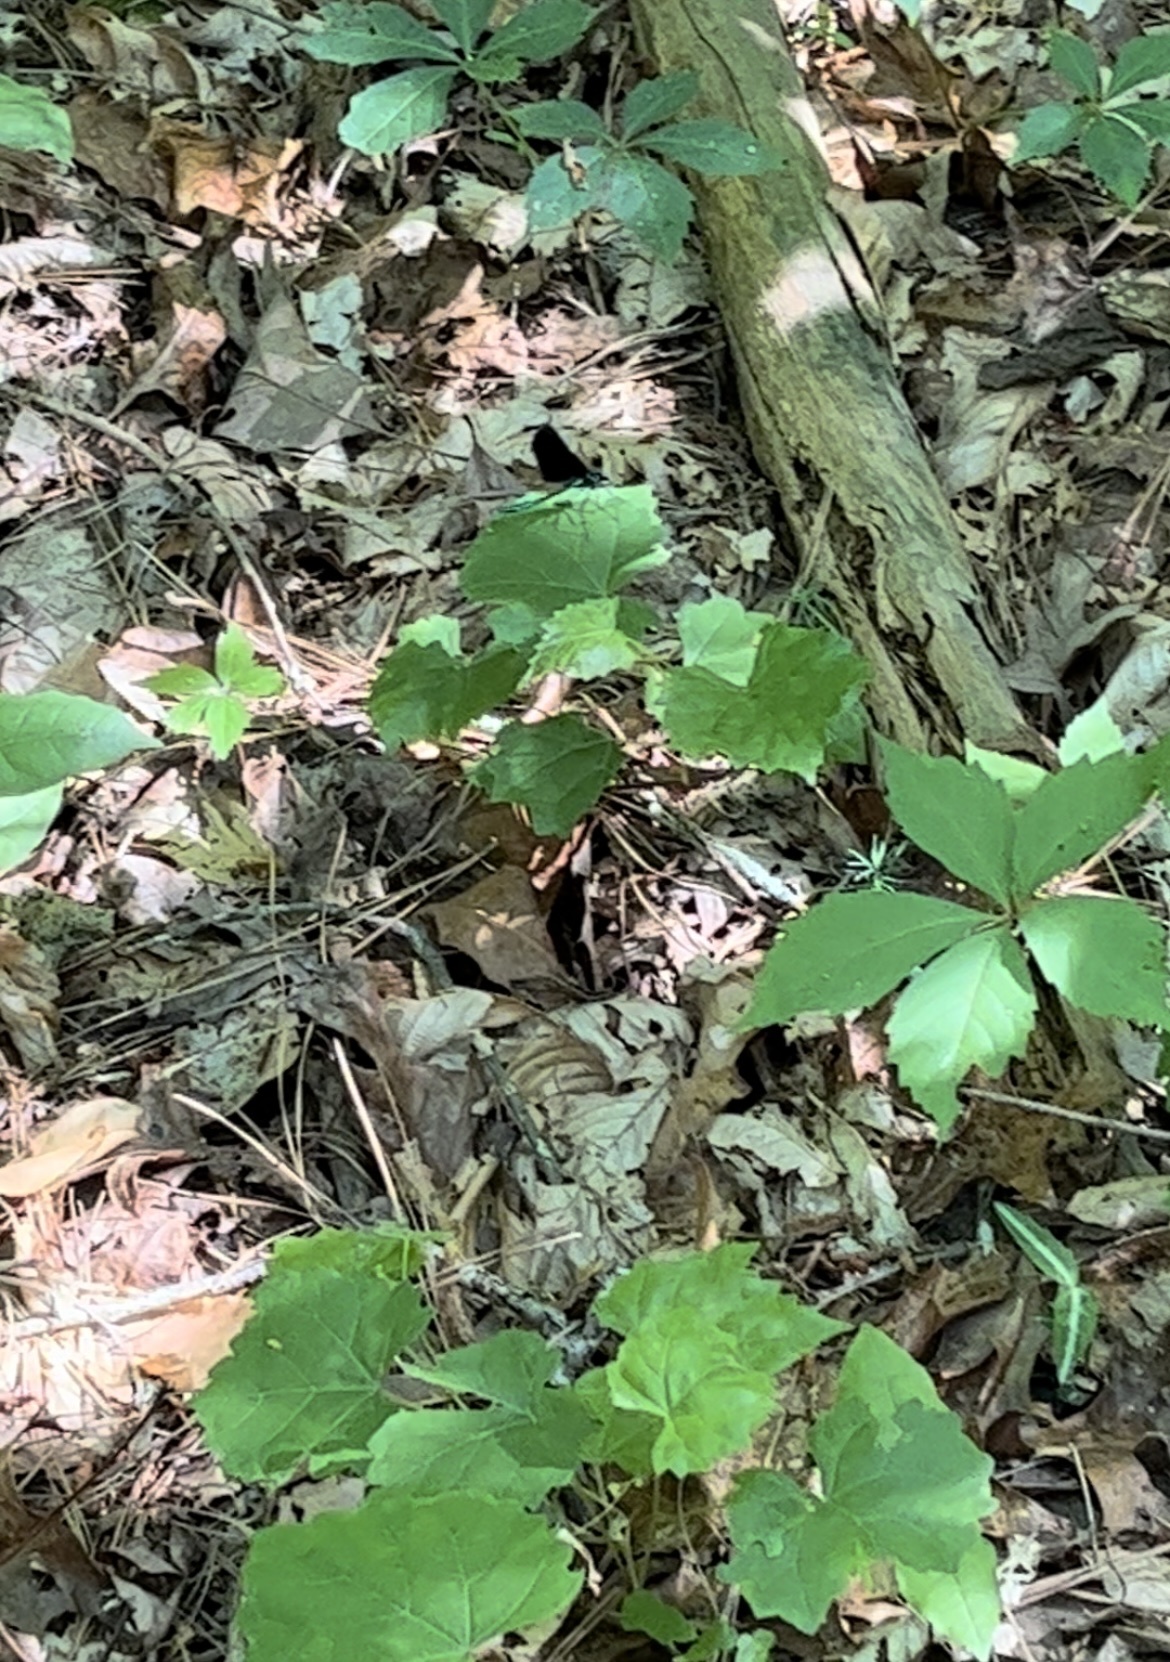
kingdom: Animalia
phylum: Arthropoda
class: Insecta
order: Odonata
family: Calopterygidae
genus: Calopteryx
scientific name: Calopteryx maculata
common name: Ebony jewelwing
